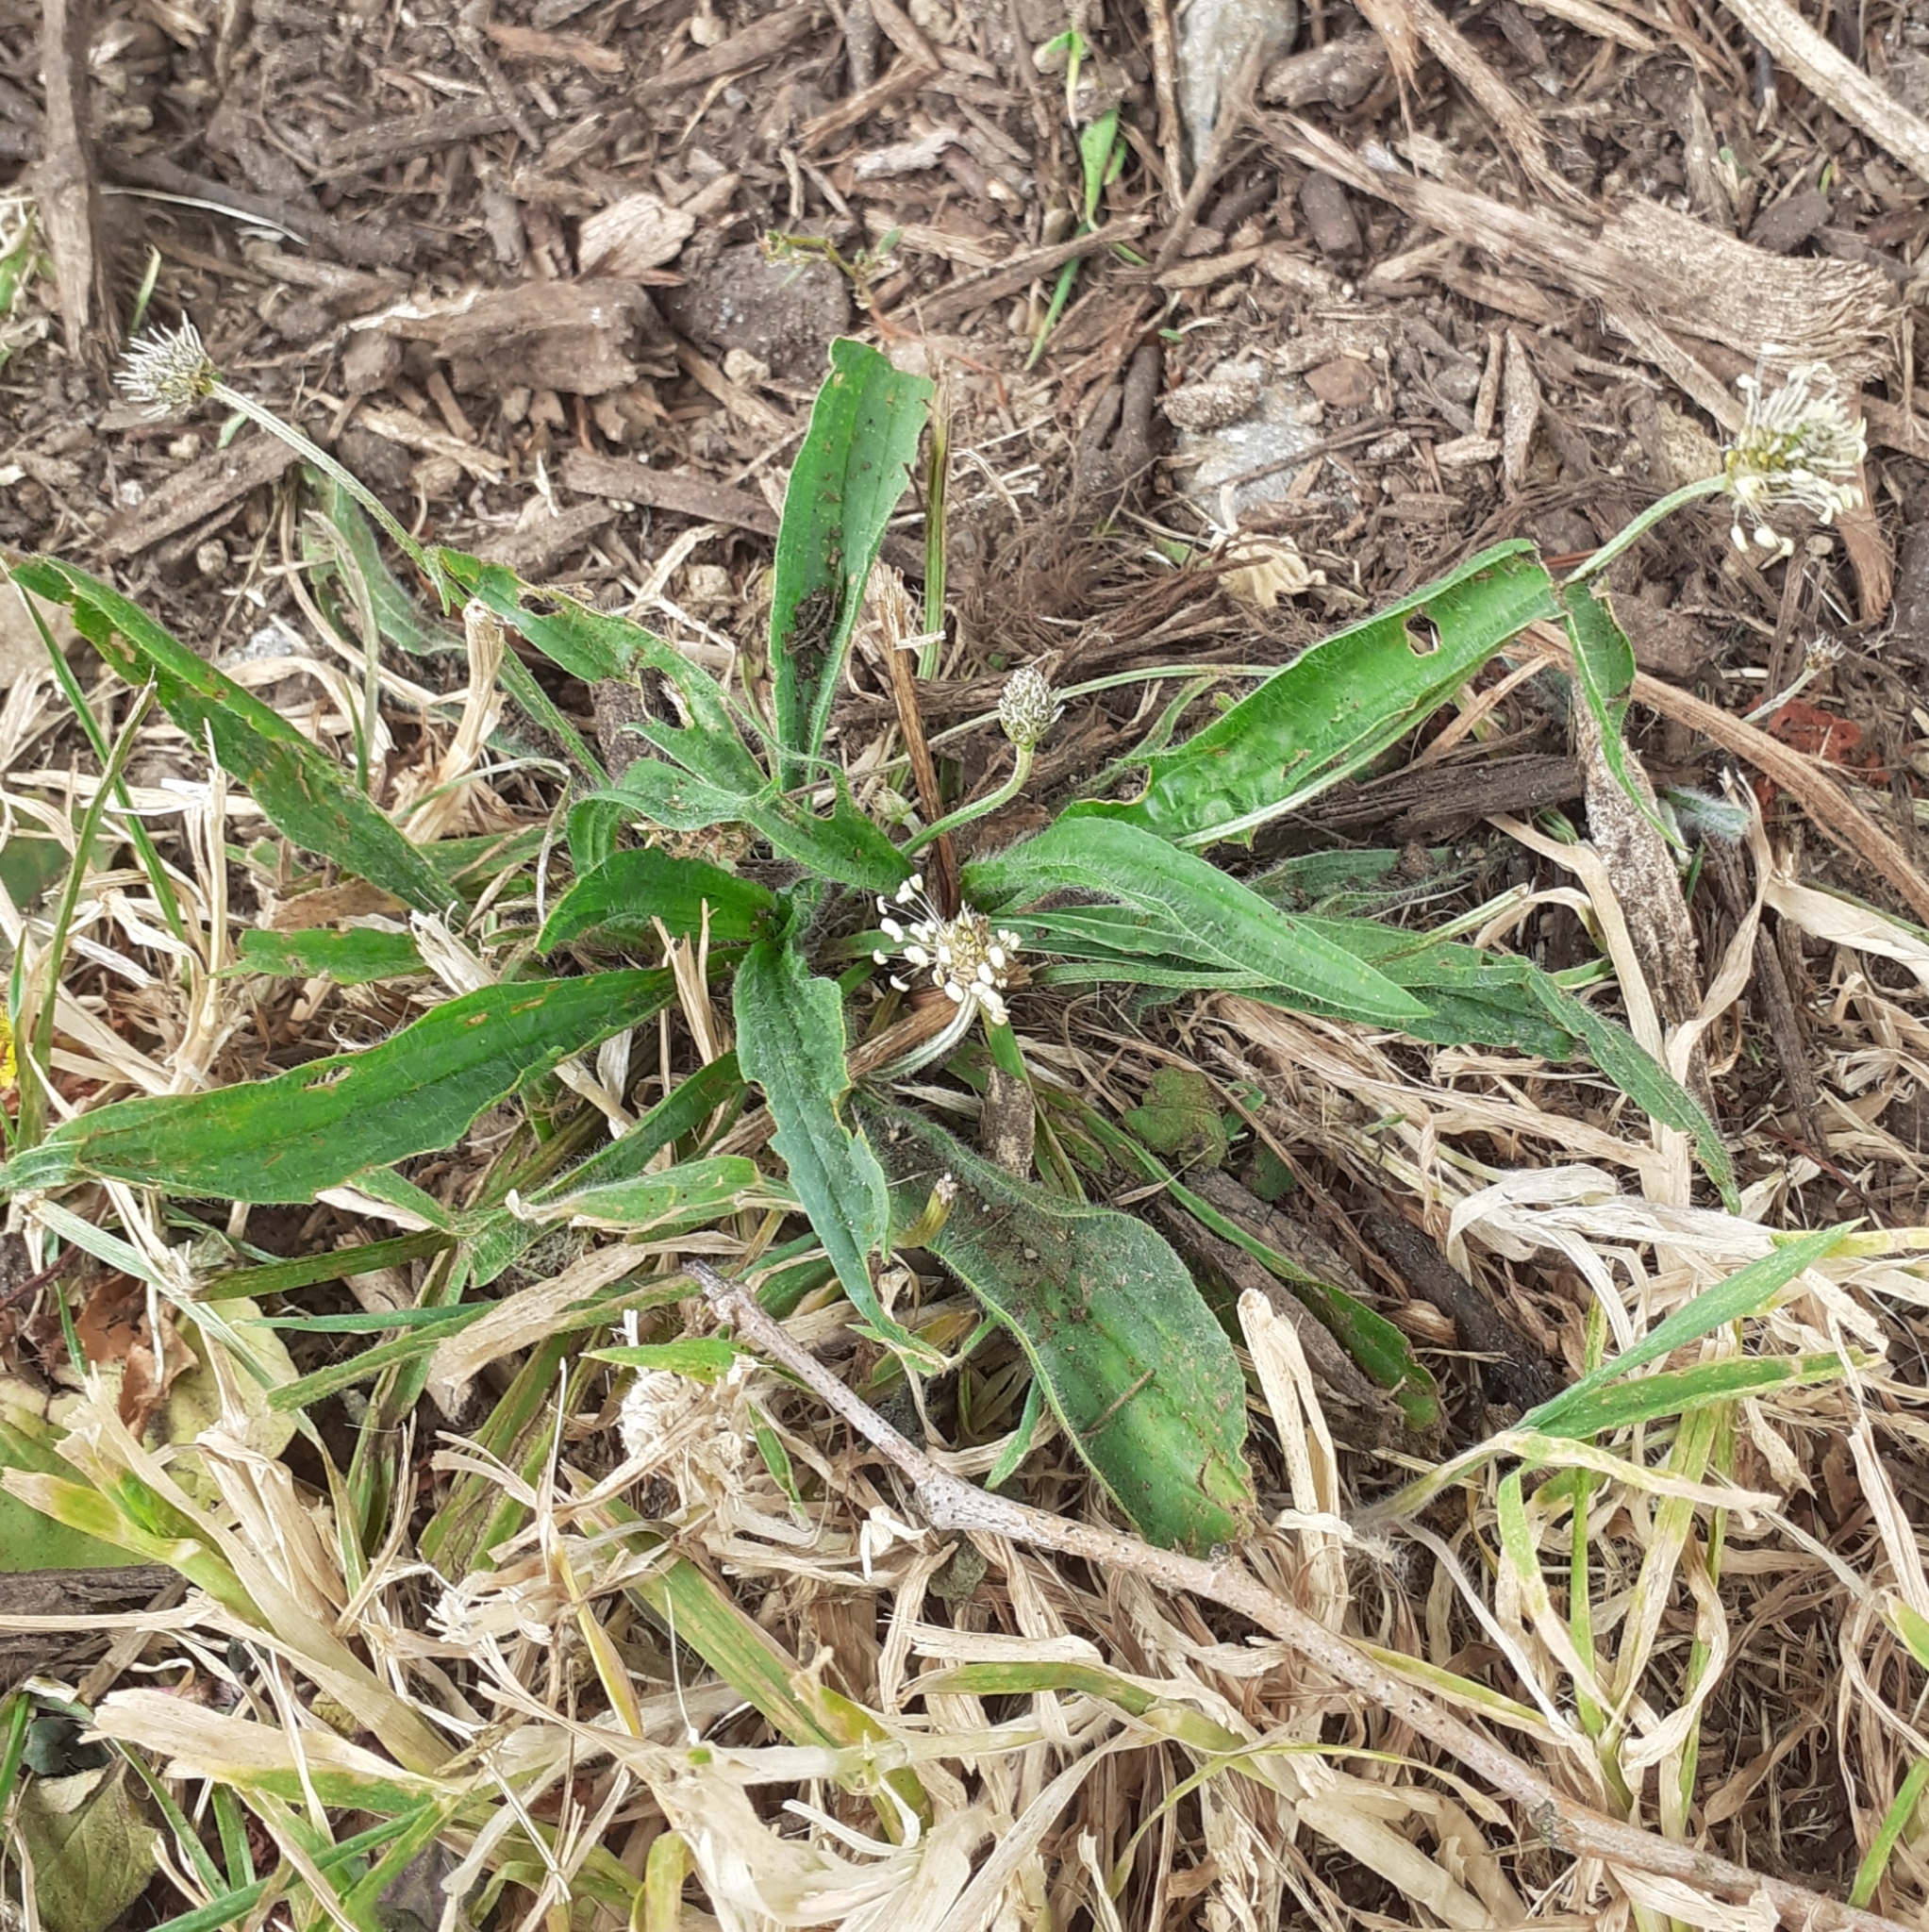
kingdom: Plantae
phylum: Tracheophyta
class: Magnoliopsida
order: Lamiales
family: Plantaginaceae
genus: Plantago
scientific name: Plantago lanceolata
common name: Ribwort plantain
